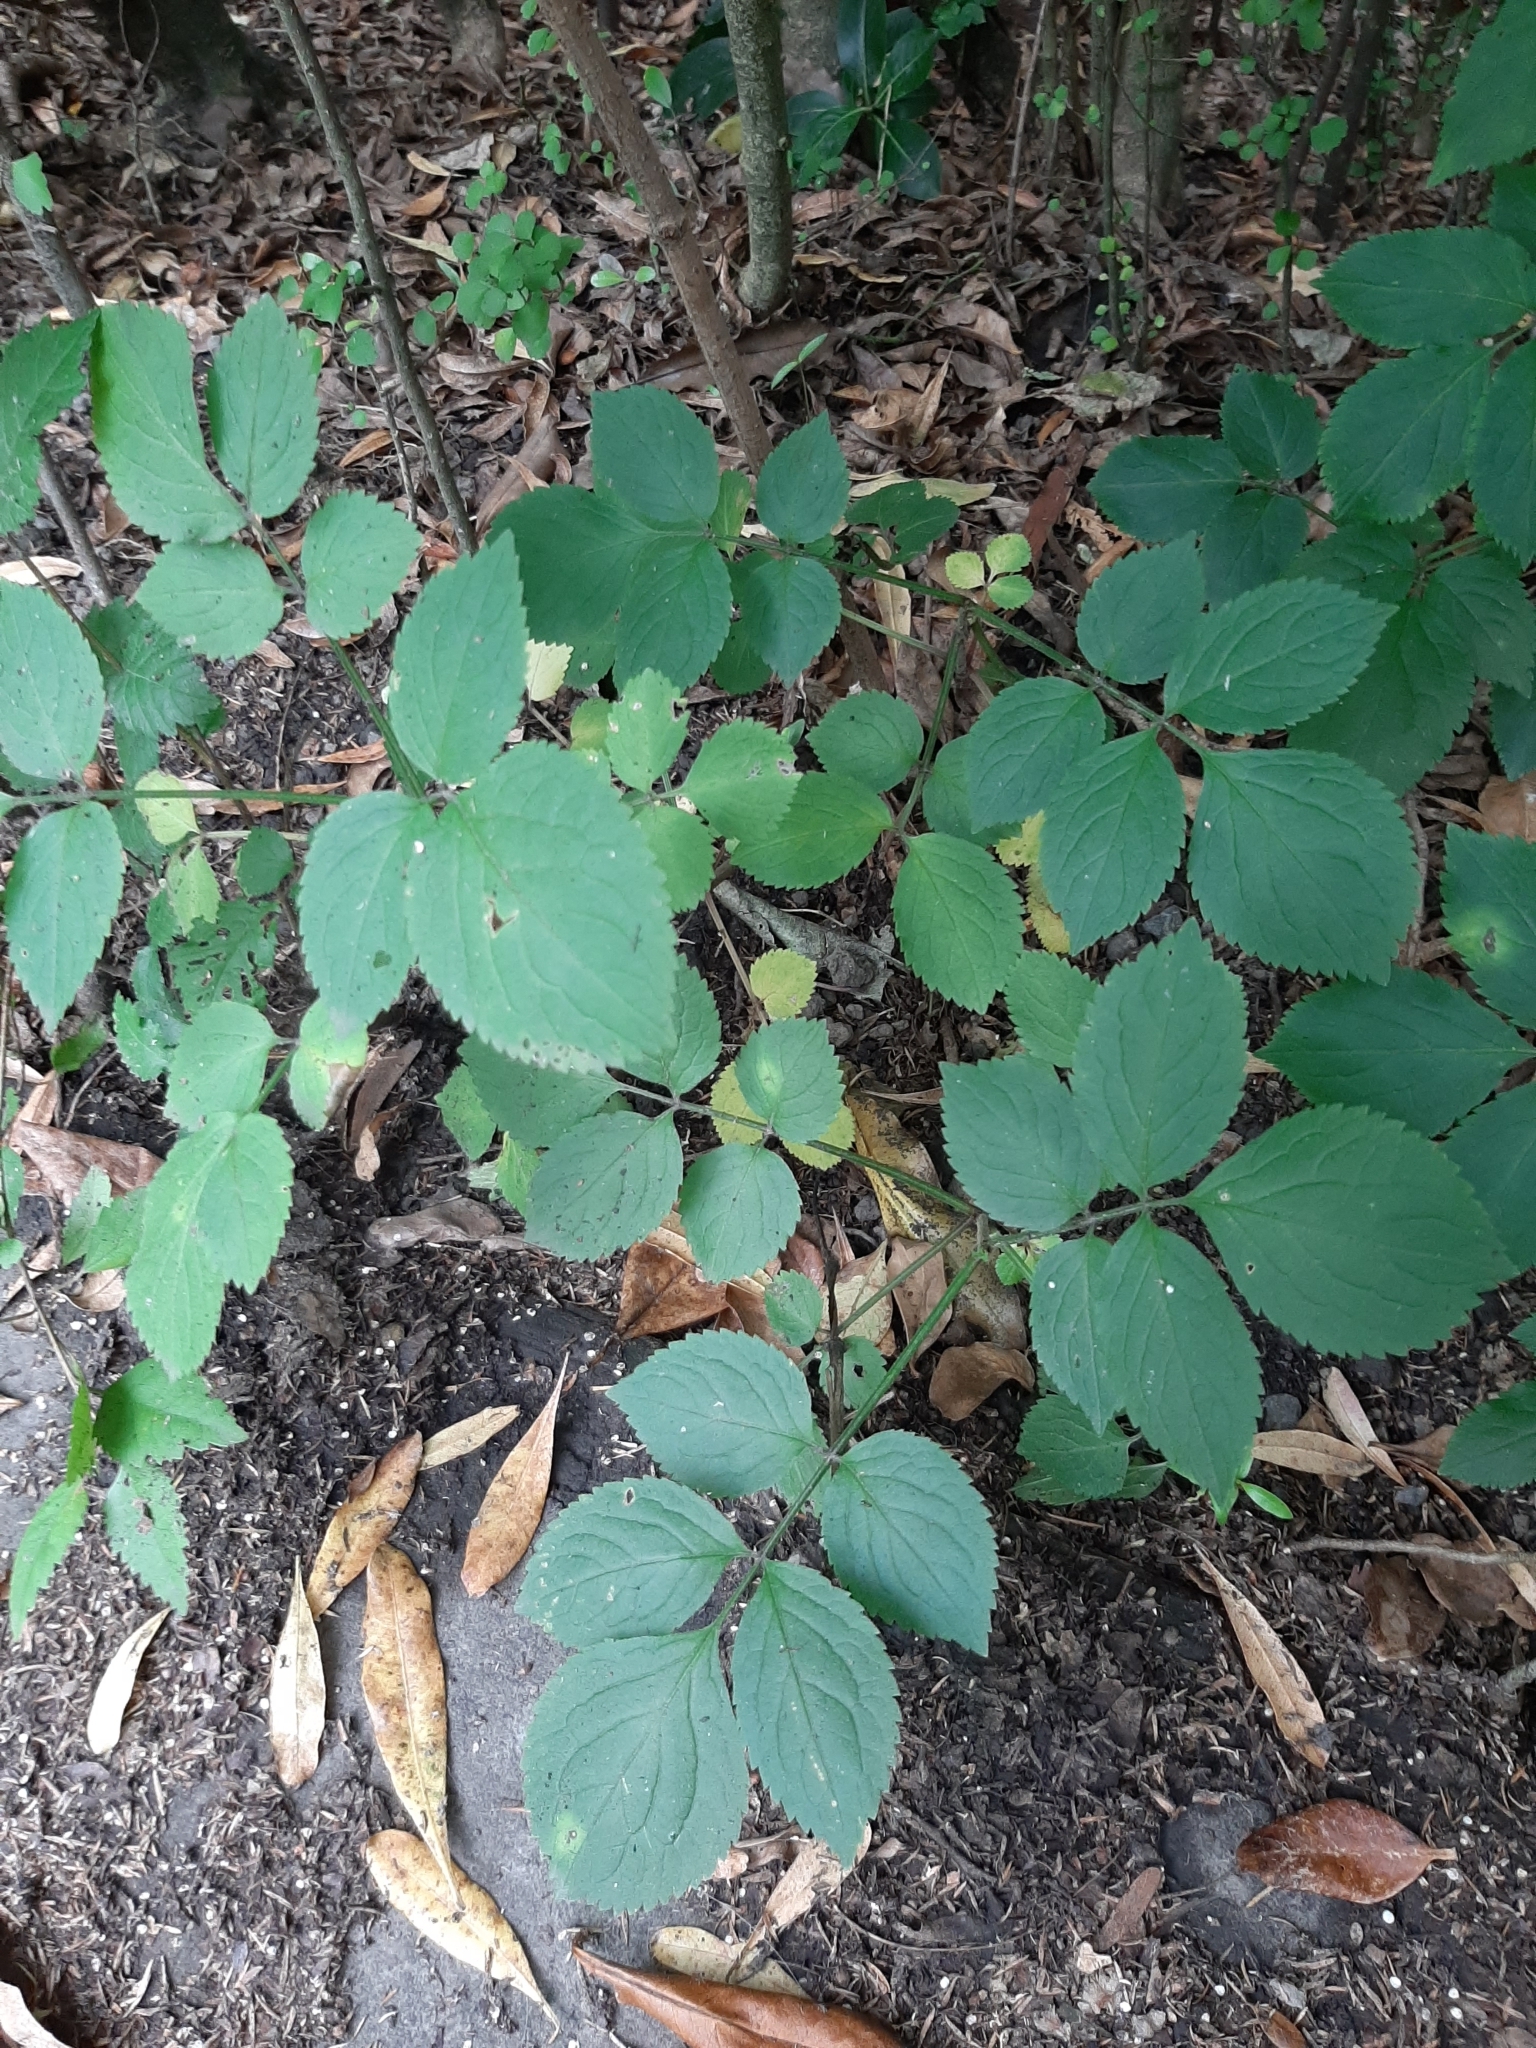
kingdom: Plantae
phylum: Tracheophyta
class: Magnoliopsida
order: Dipsacales
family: Viburnaceae
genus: Sambucus
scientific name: Sambucus nigra
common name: Elder
